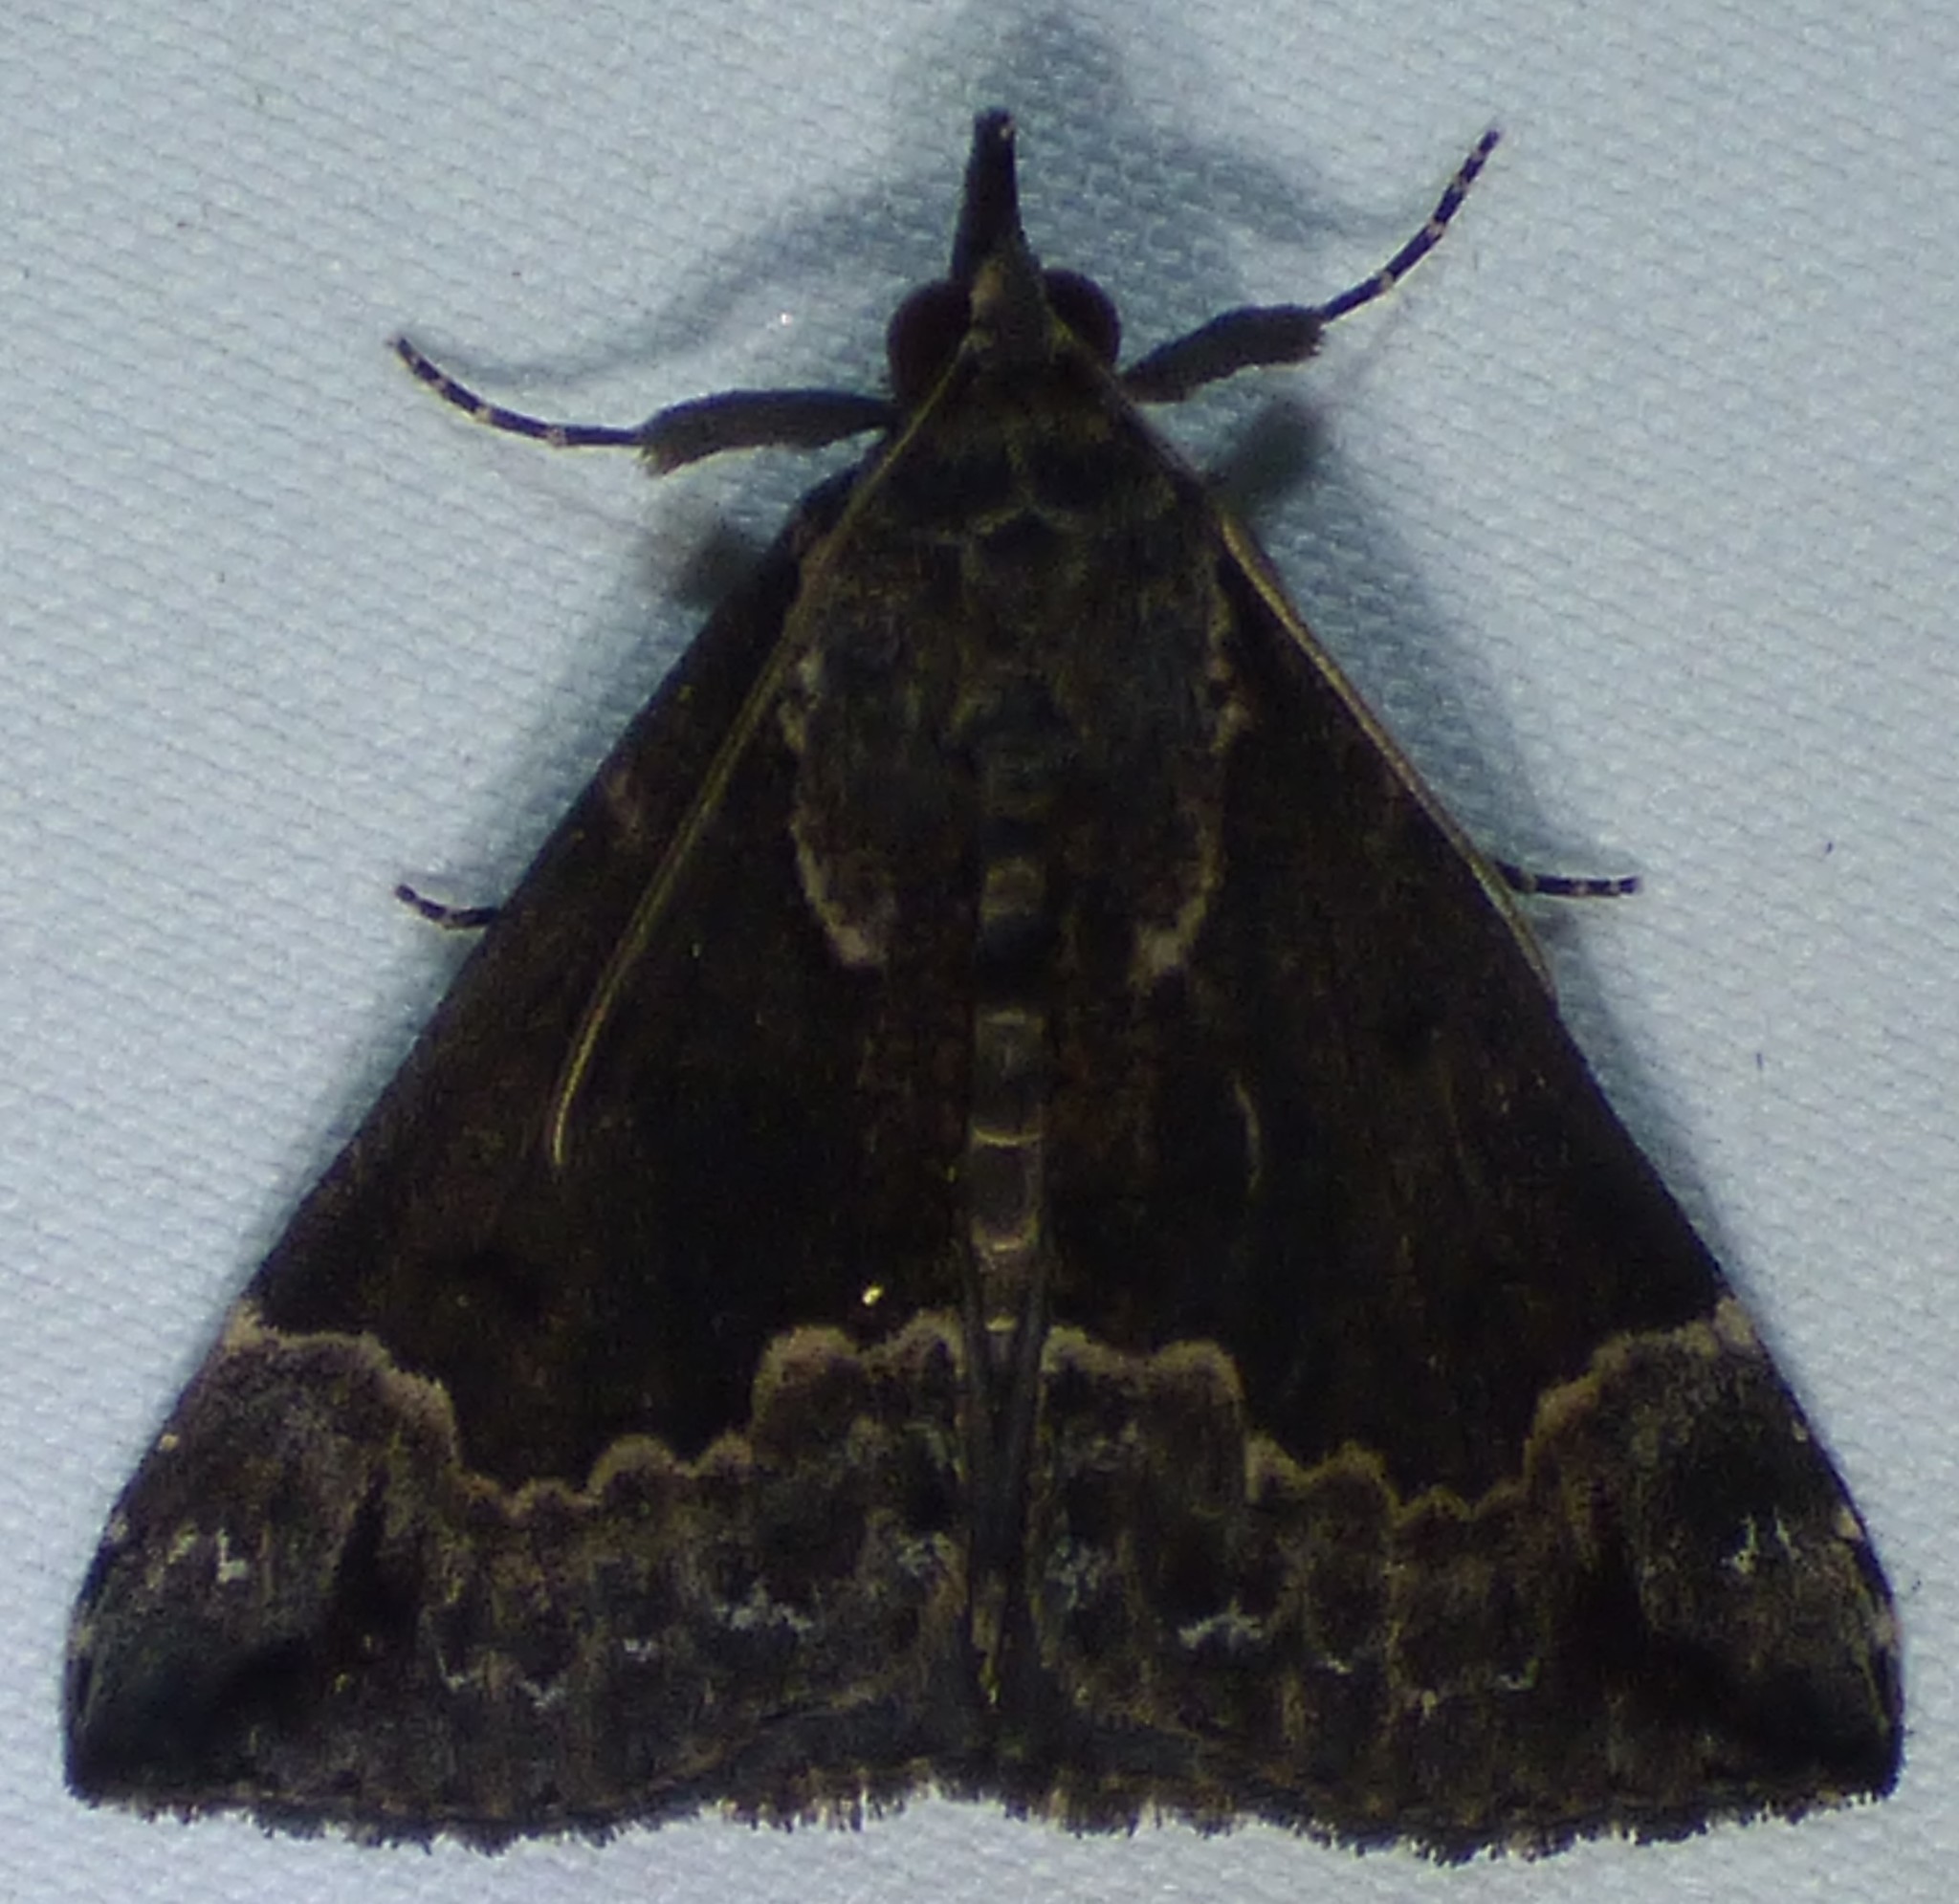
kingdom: Animalia
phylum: Arthropoda
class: Insecta
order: Lepidoptera
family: Erebidae
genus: Hypena
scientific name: Hypena baltimoralis
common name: Baltimore snout
